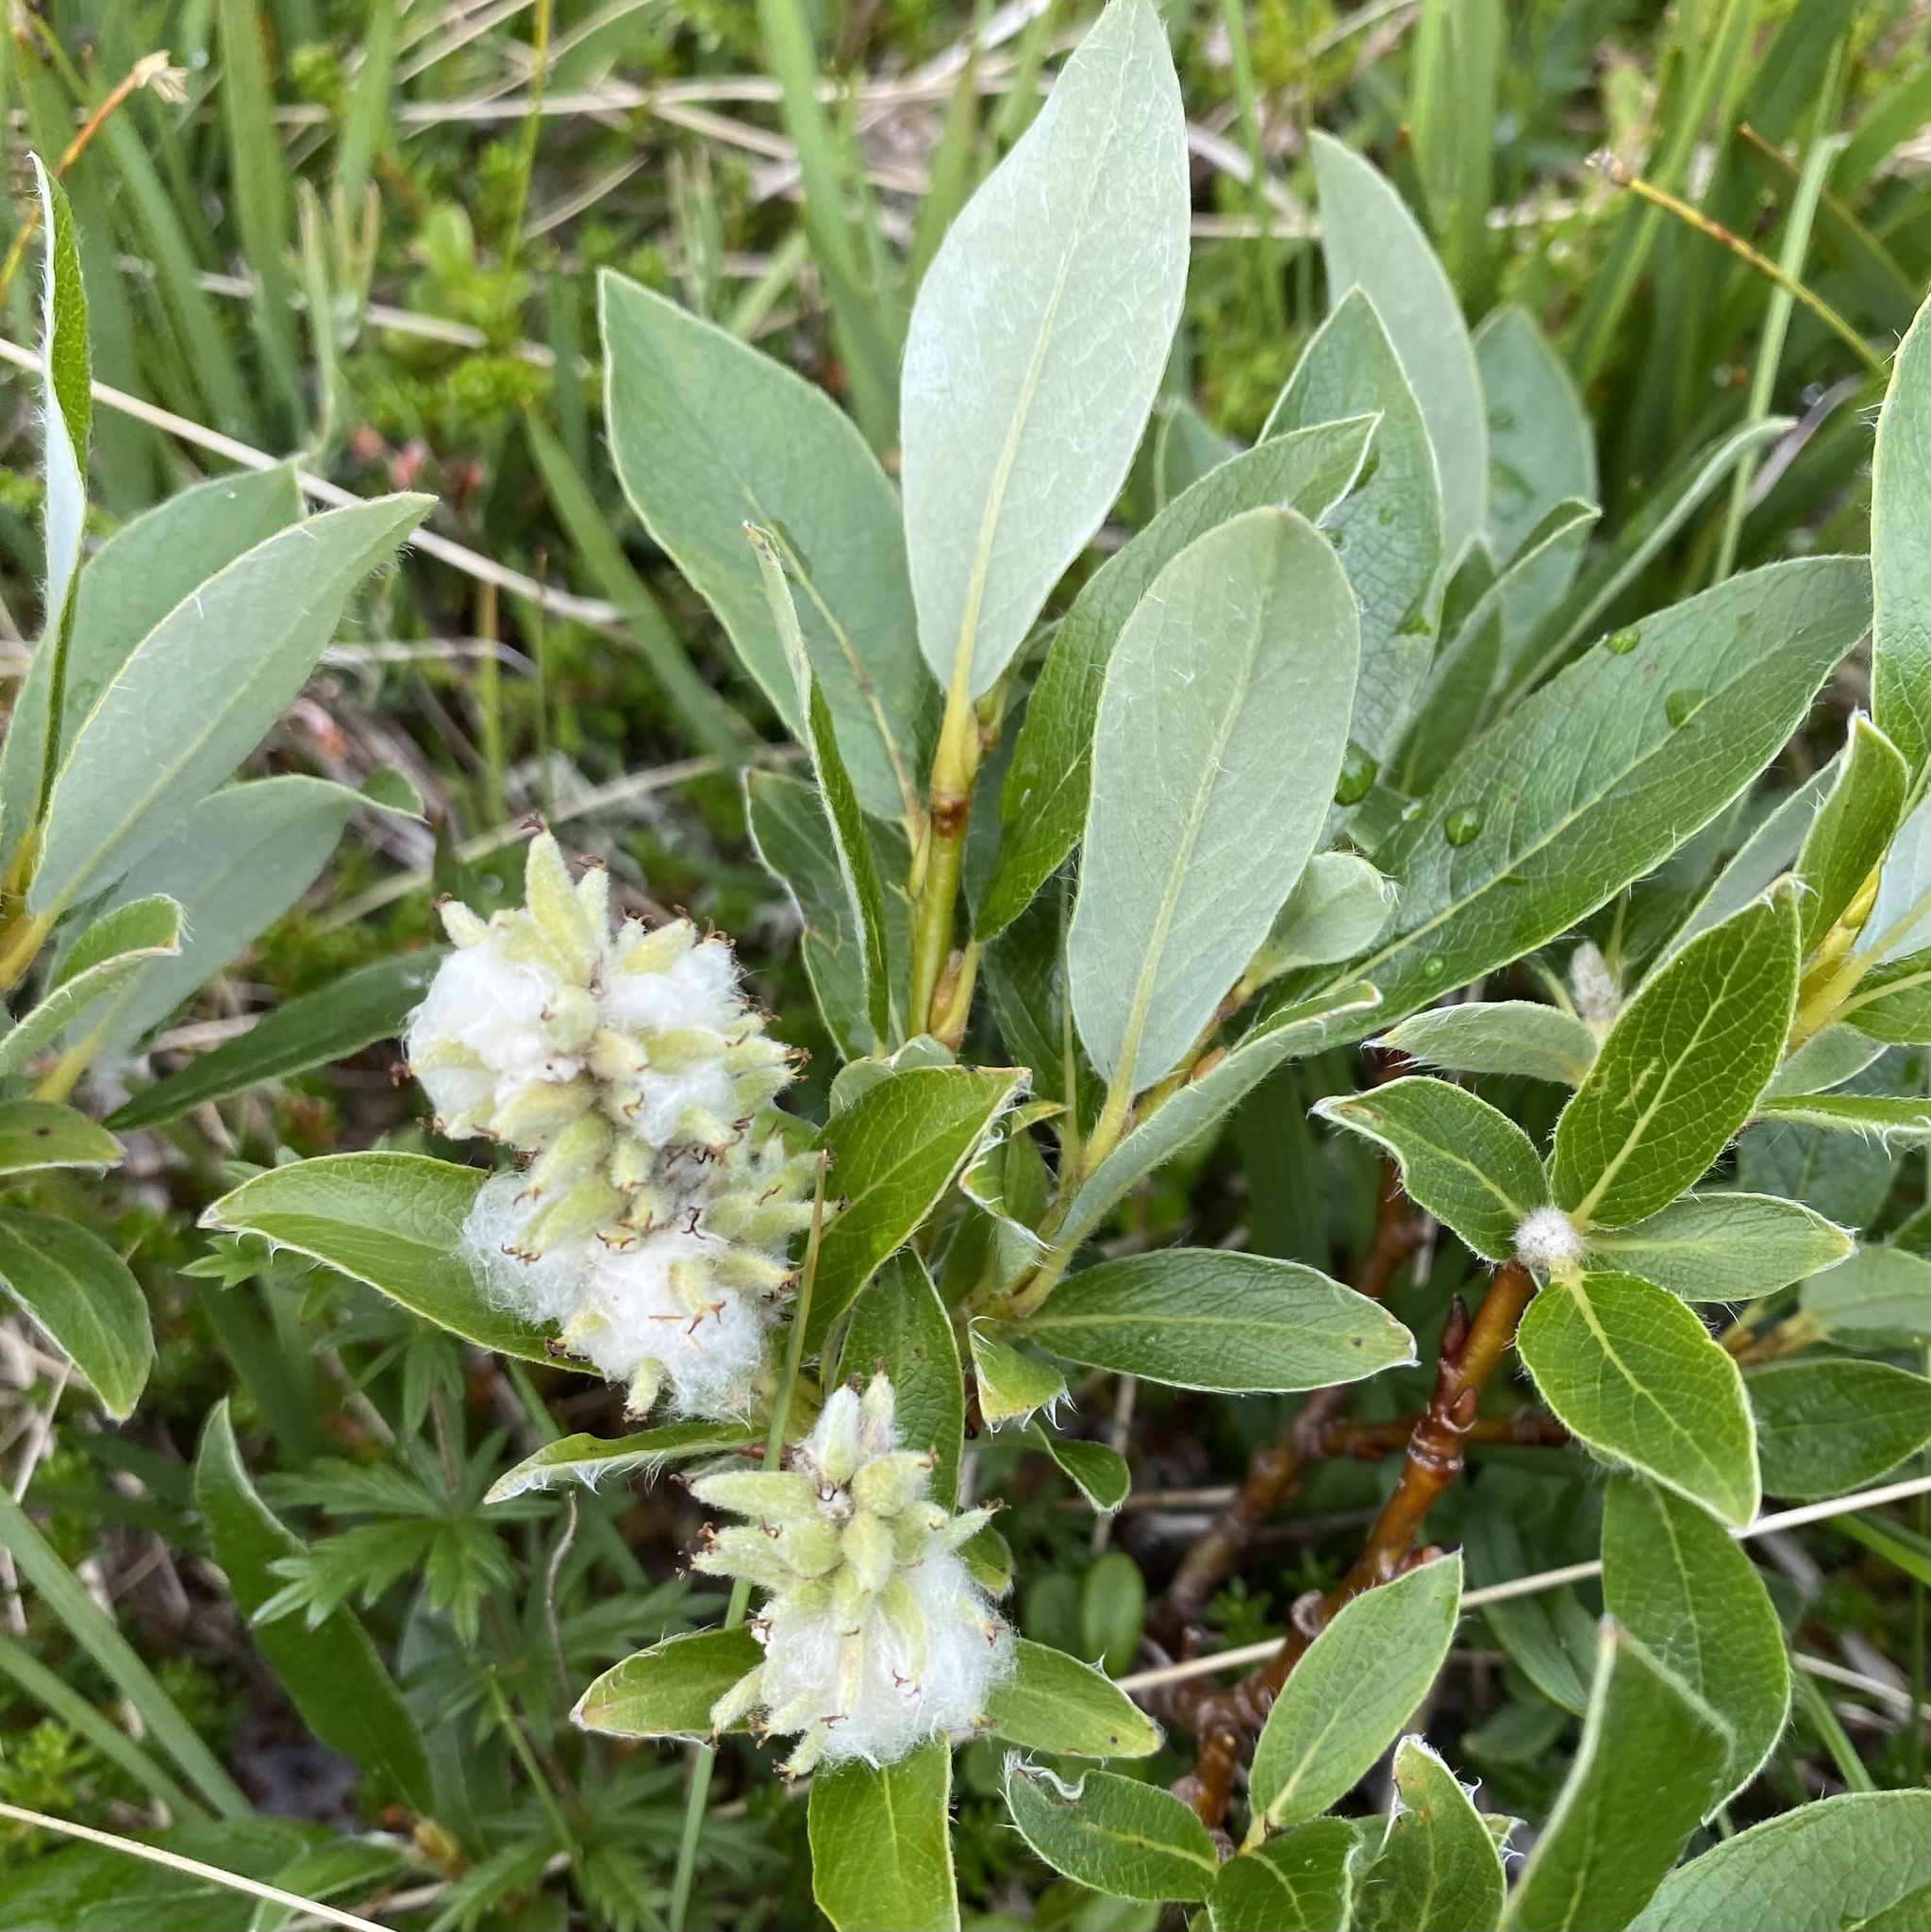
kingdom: Plantae
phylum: Tracheophyta
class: Magnoliopsida
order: Malpighiales
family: Salicaceae
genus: Salix
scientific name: Salix glauca
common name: Glaucous willow
